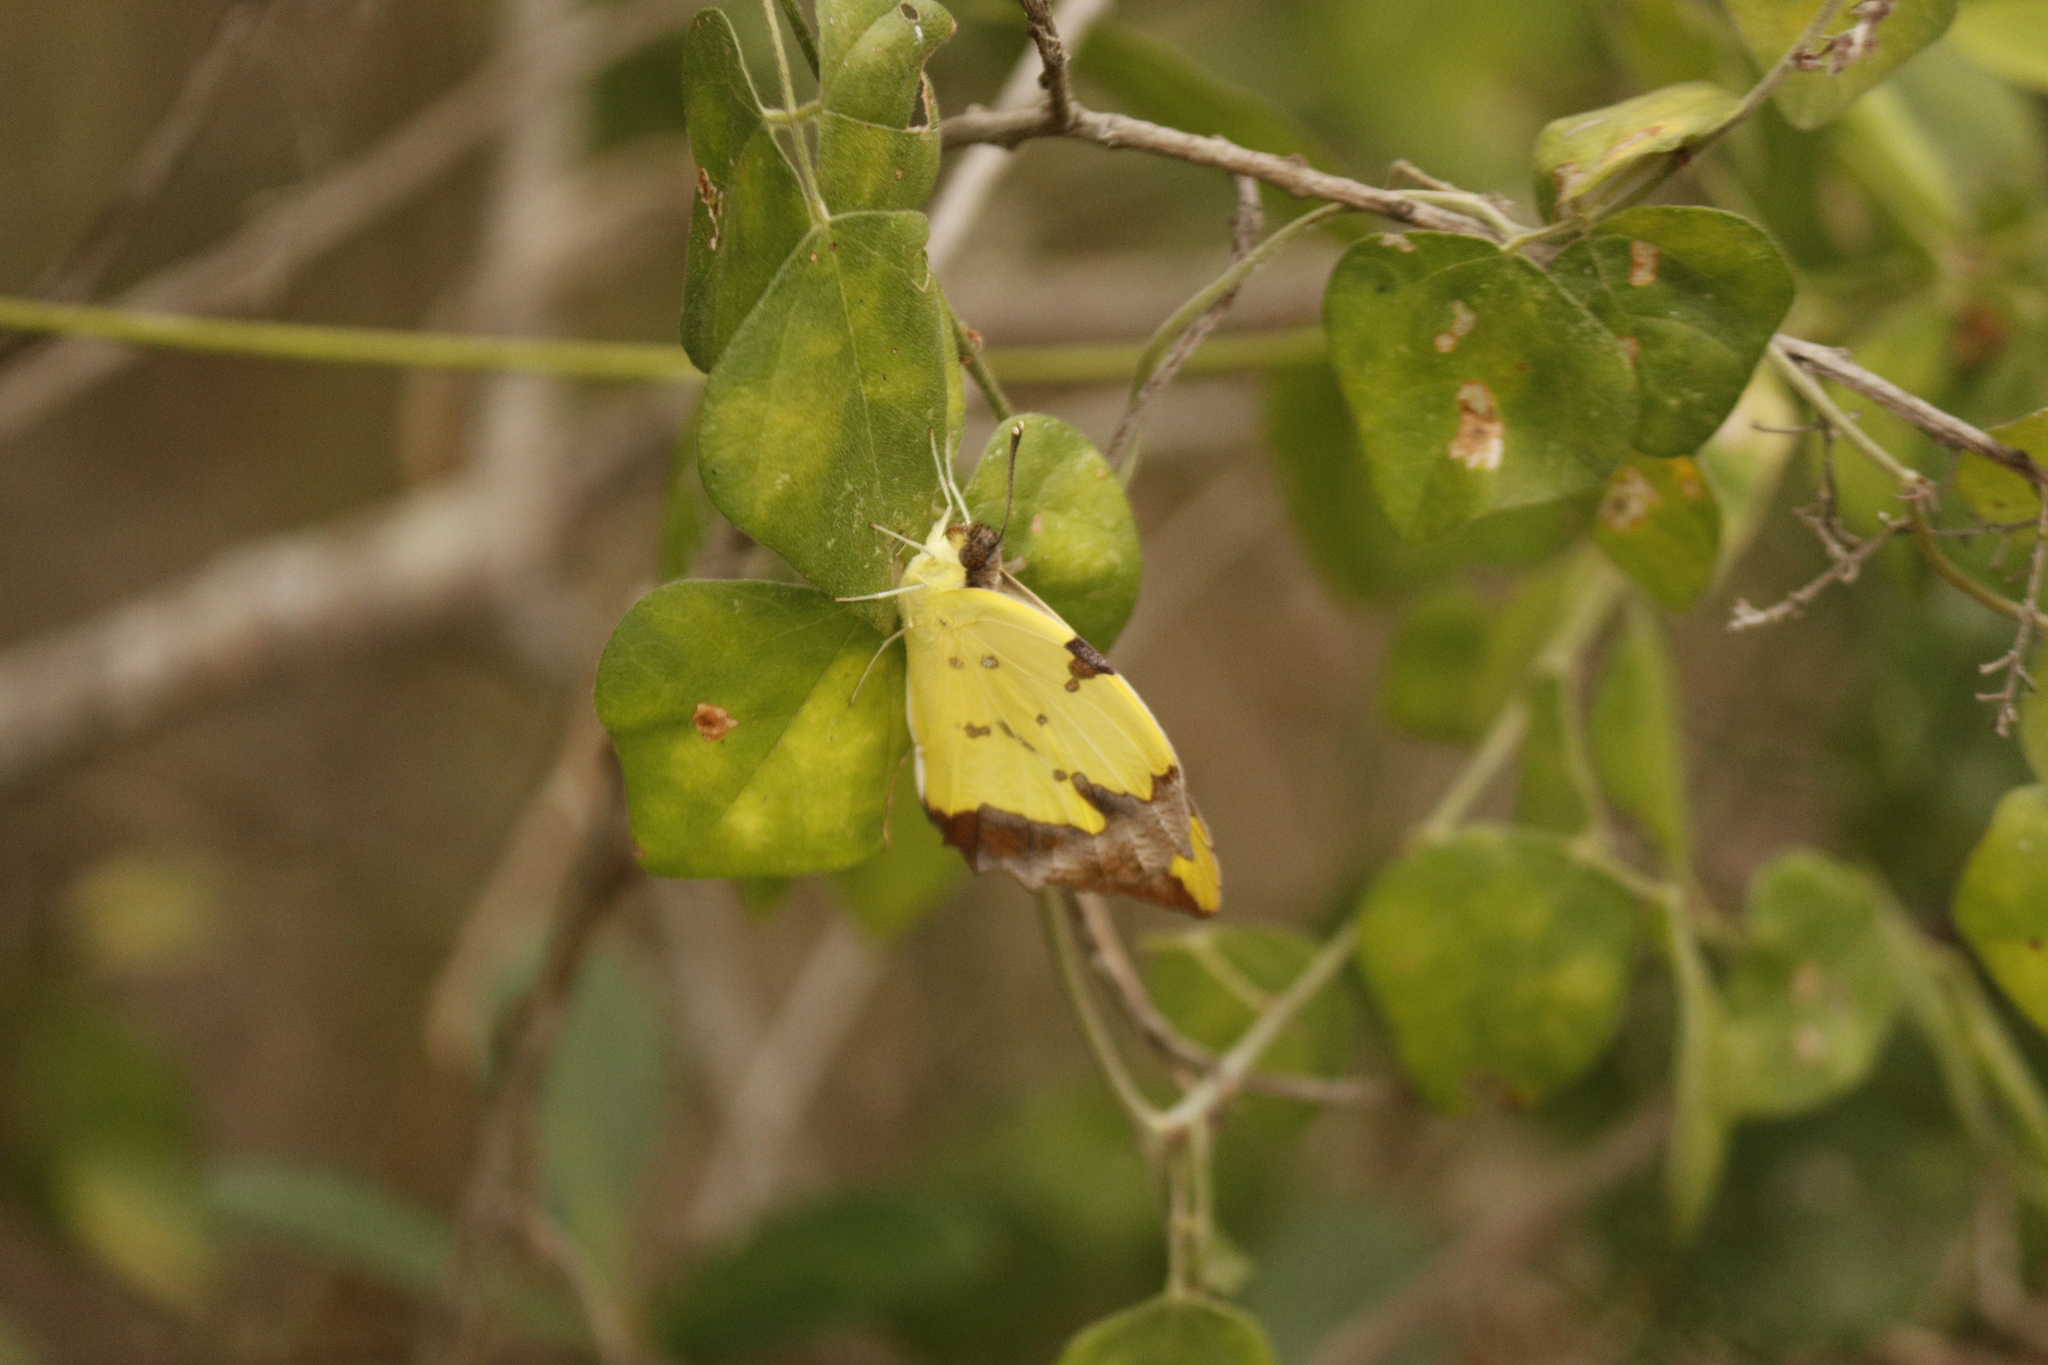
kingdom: Animalia
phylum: Arthropoda
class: Insecta
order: Lepidoptera
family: Pieridae
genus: Eronia
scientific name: Eronia cleodora
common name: Vine-leaf vagrant
